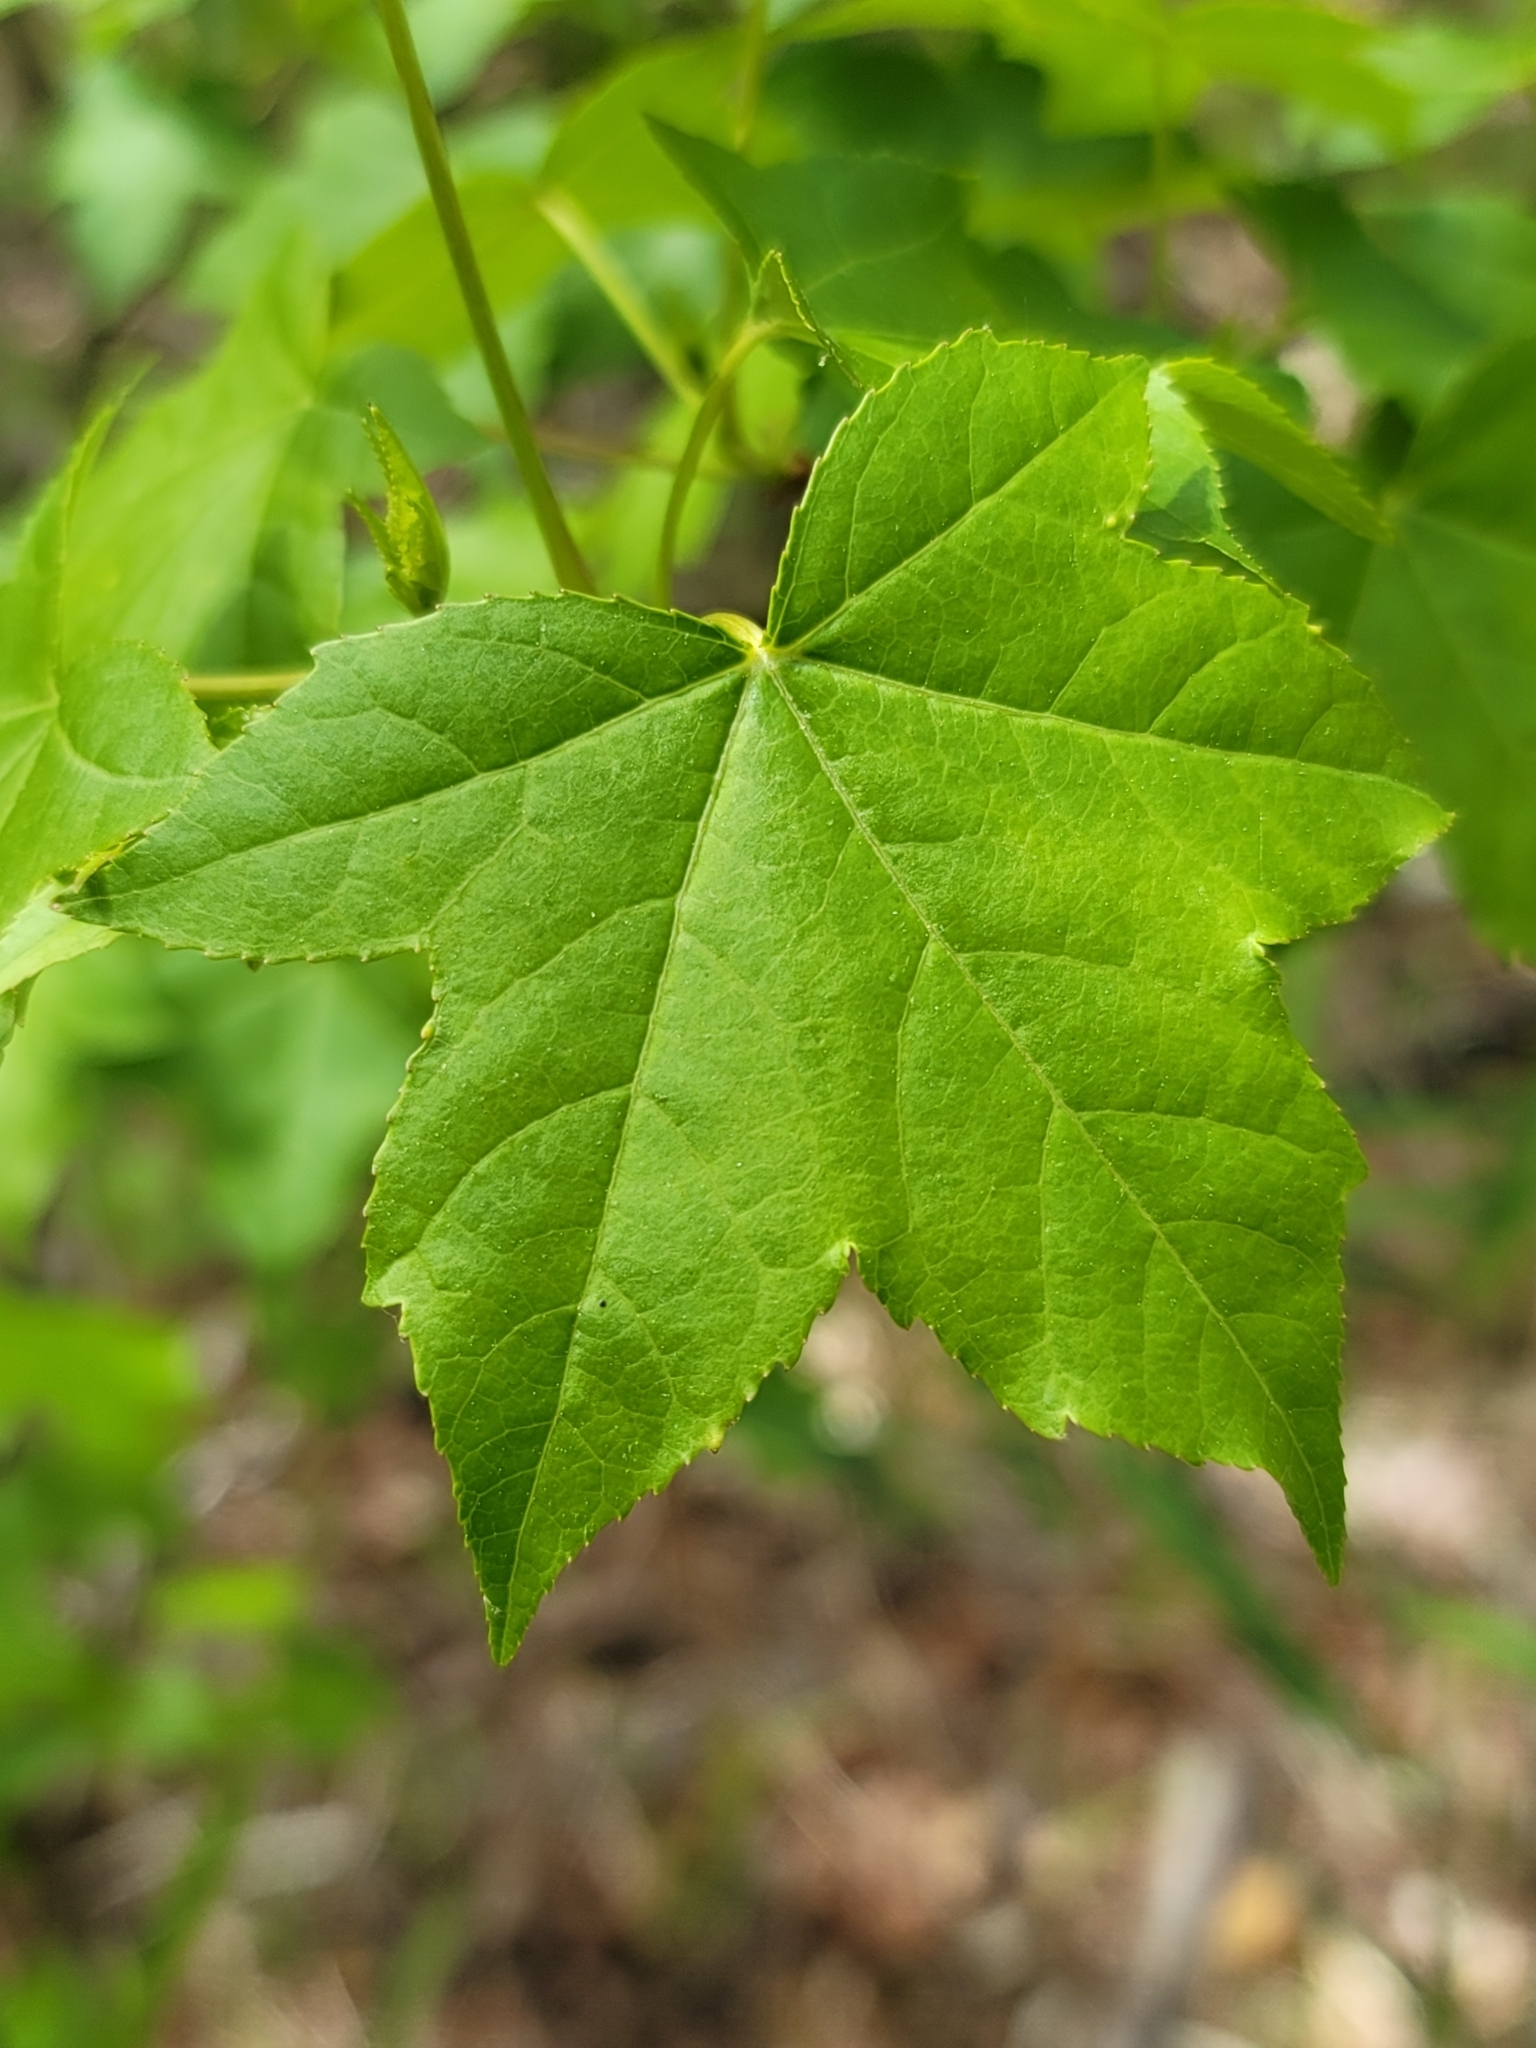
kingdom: Plantae
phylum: Tracheophyta
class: Magnoliopsida
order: Saxifragales
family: Altingiaceae
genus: Liquidambar
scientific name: Liquidambar styraciflua
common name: Sweet gum
